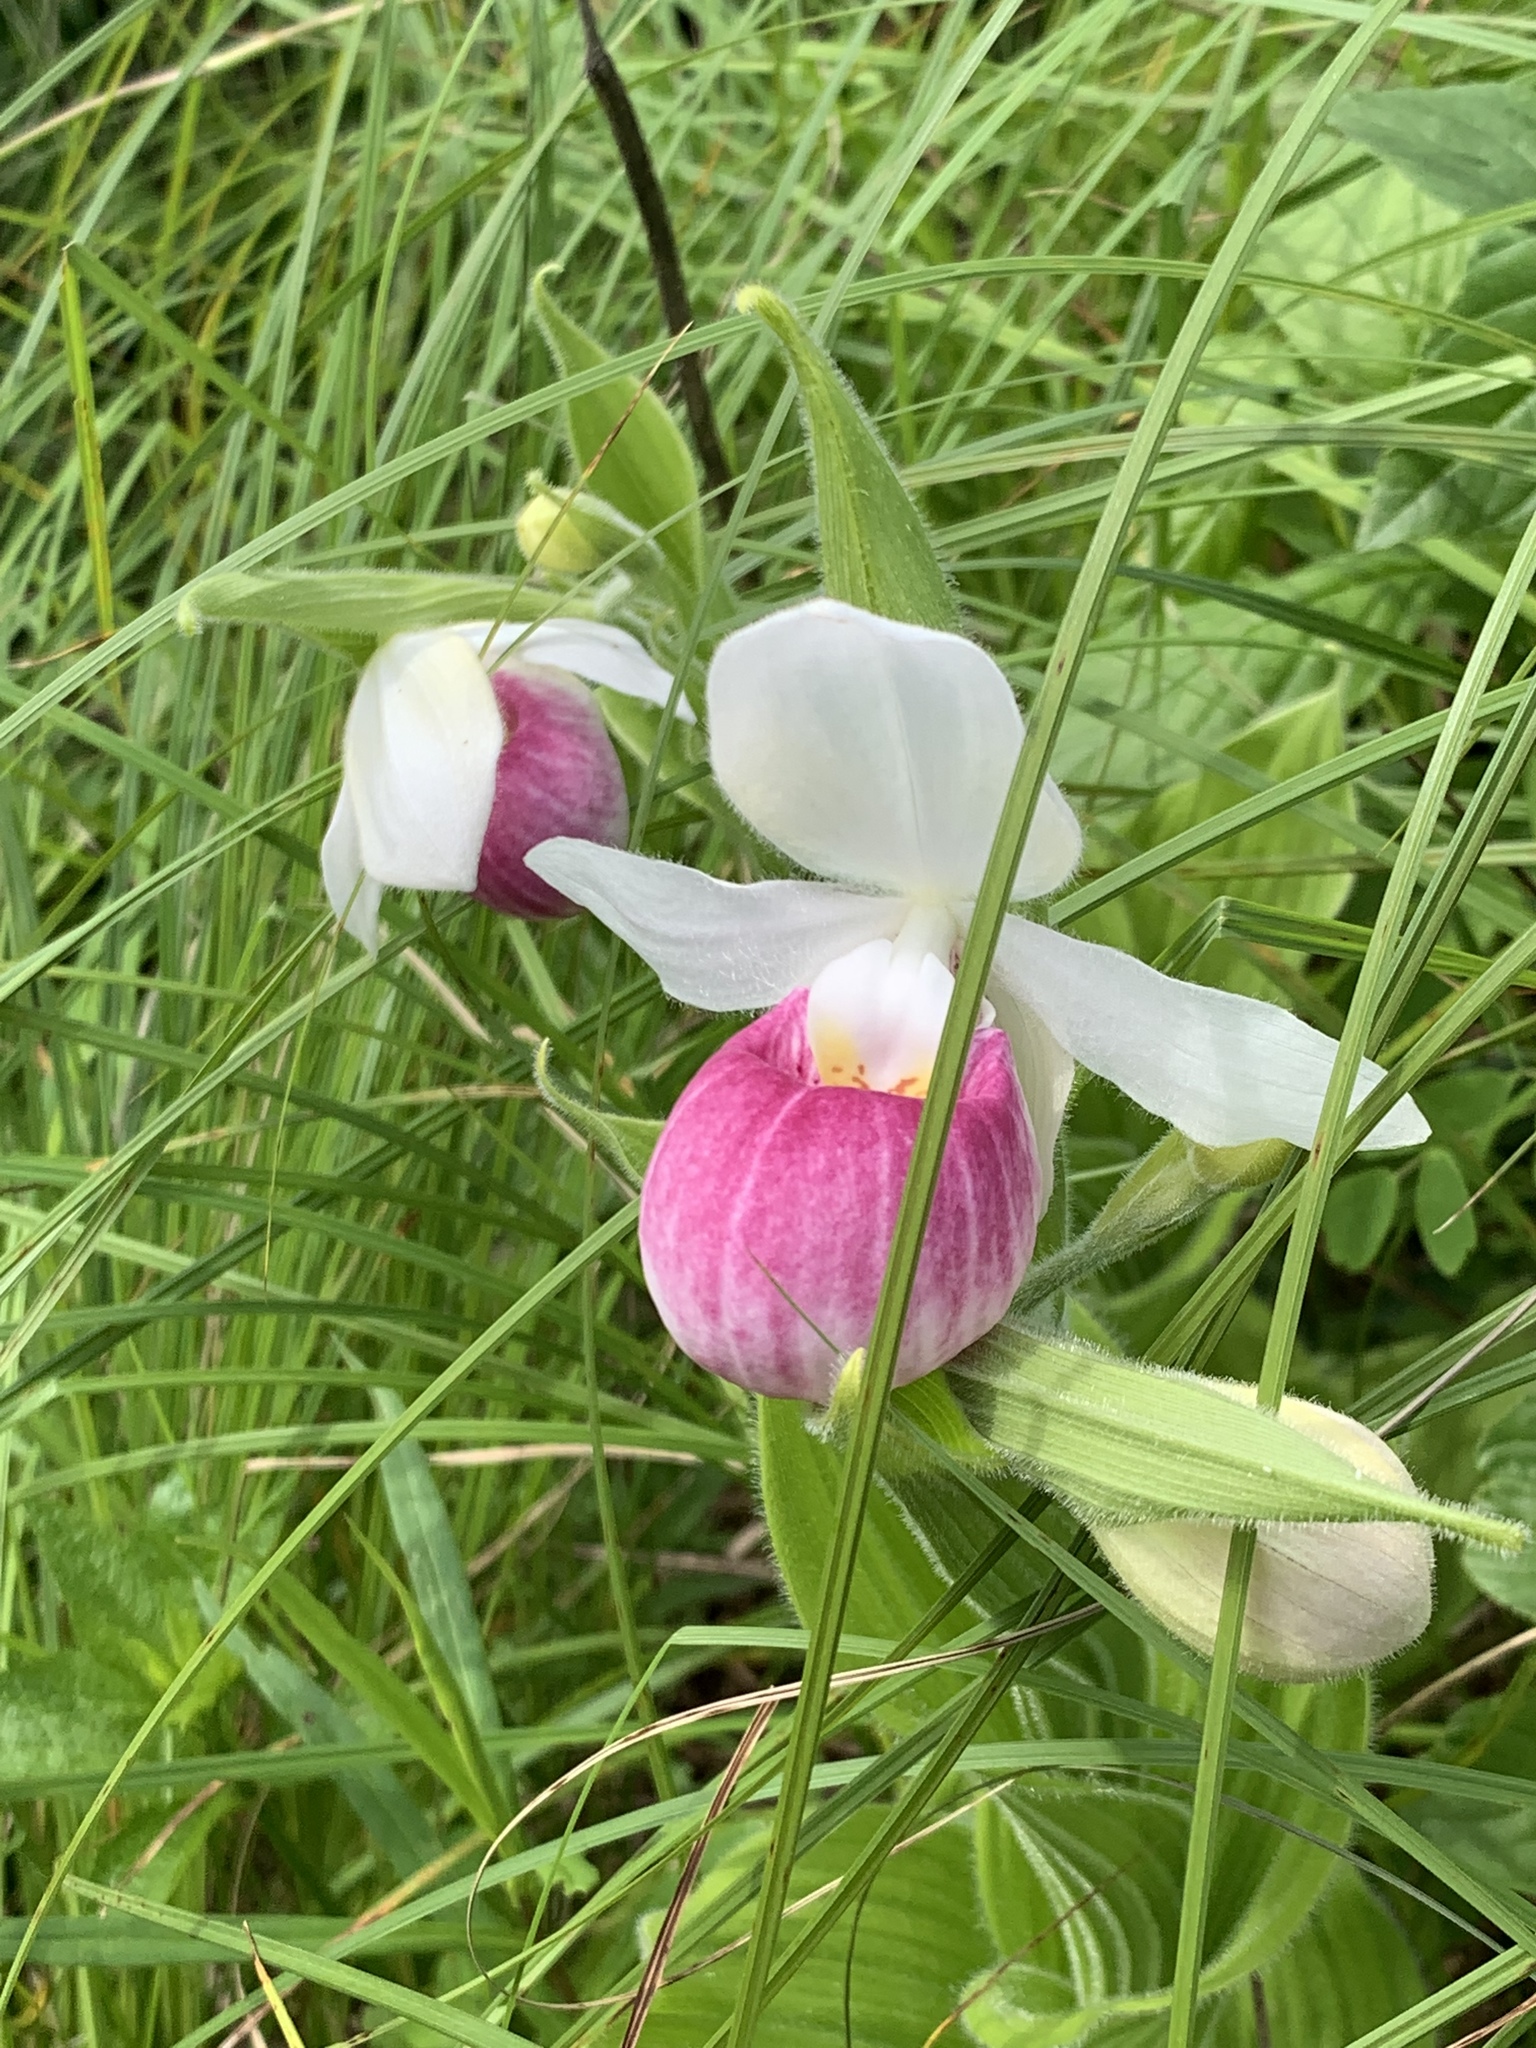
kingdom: Plantae
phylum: Tracheophyta
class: Liliopsida
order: Asparagales
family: Orchidaceae
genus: Cypripedium
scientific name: Cypripedium reginae
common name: Queen lady's-slipper
